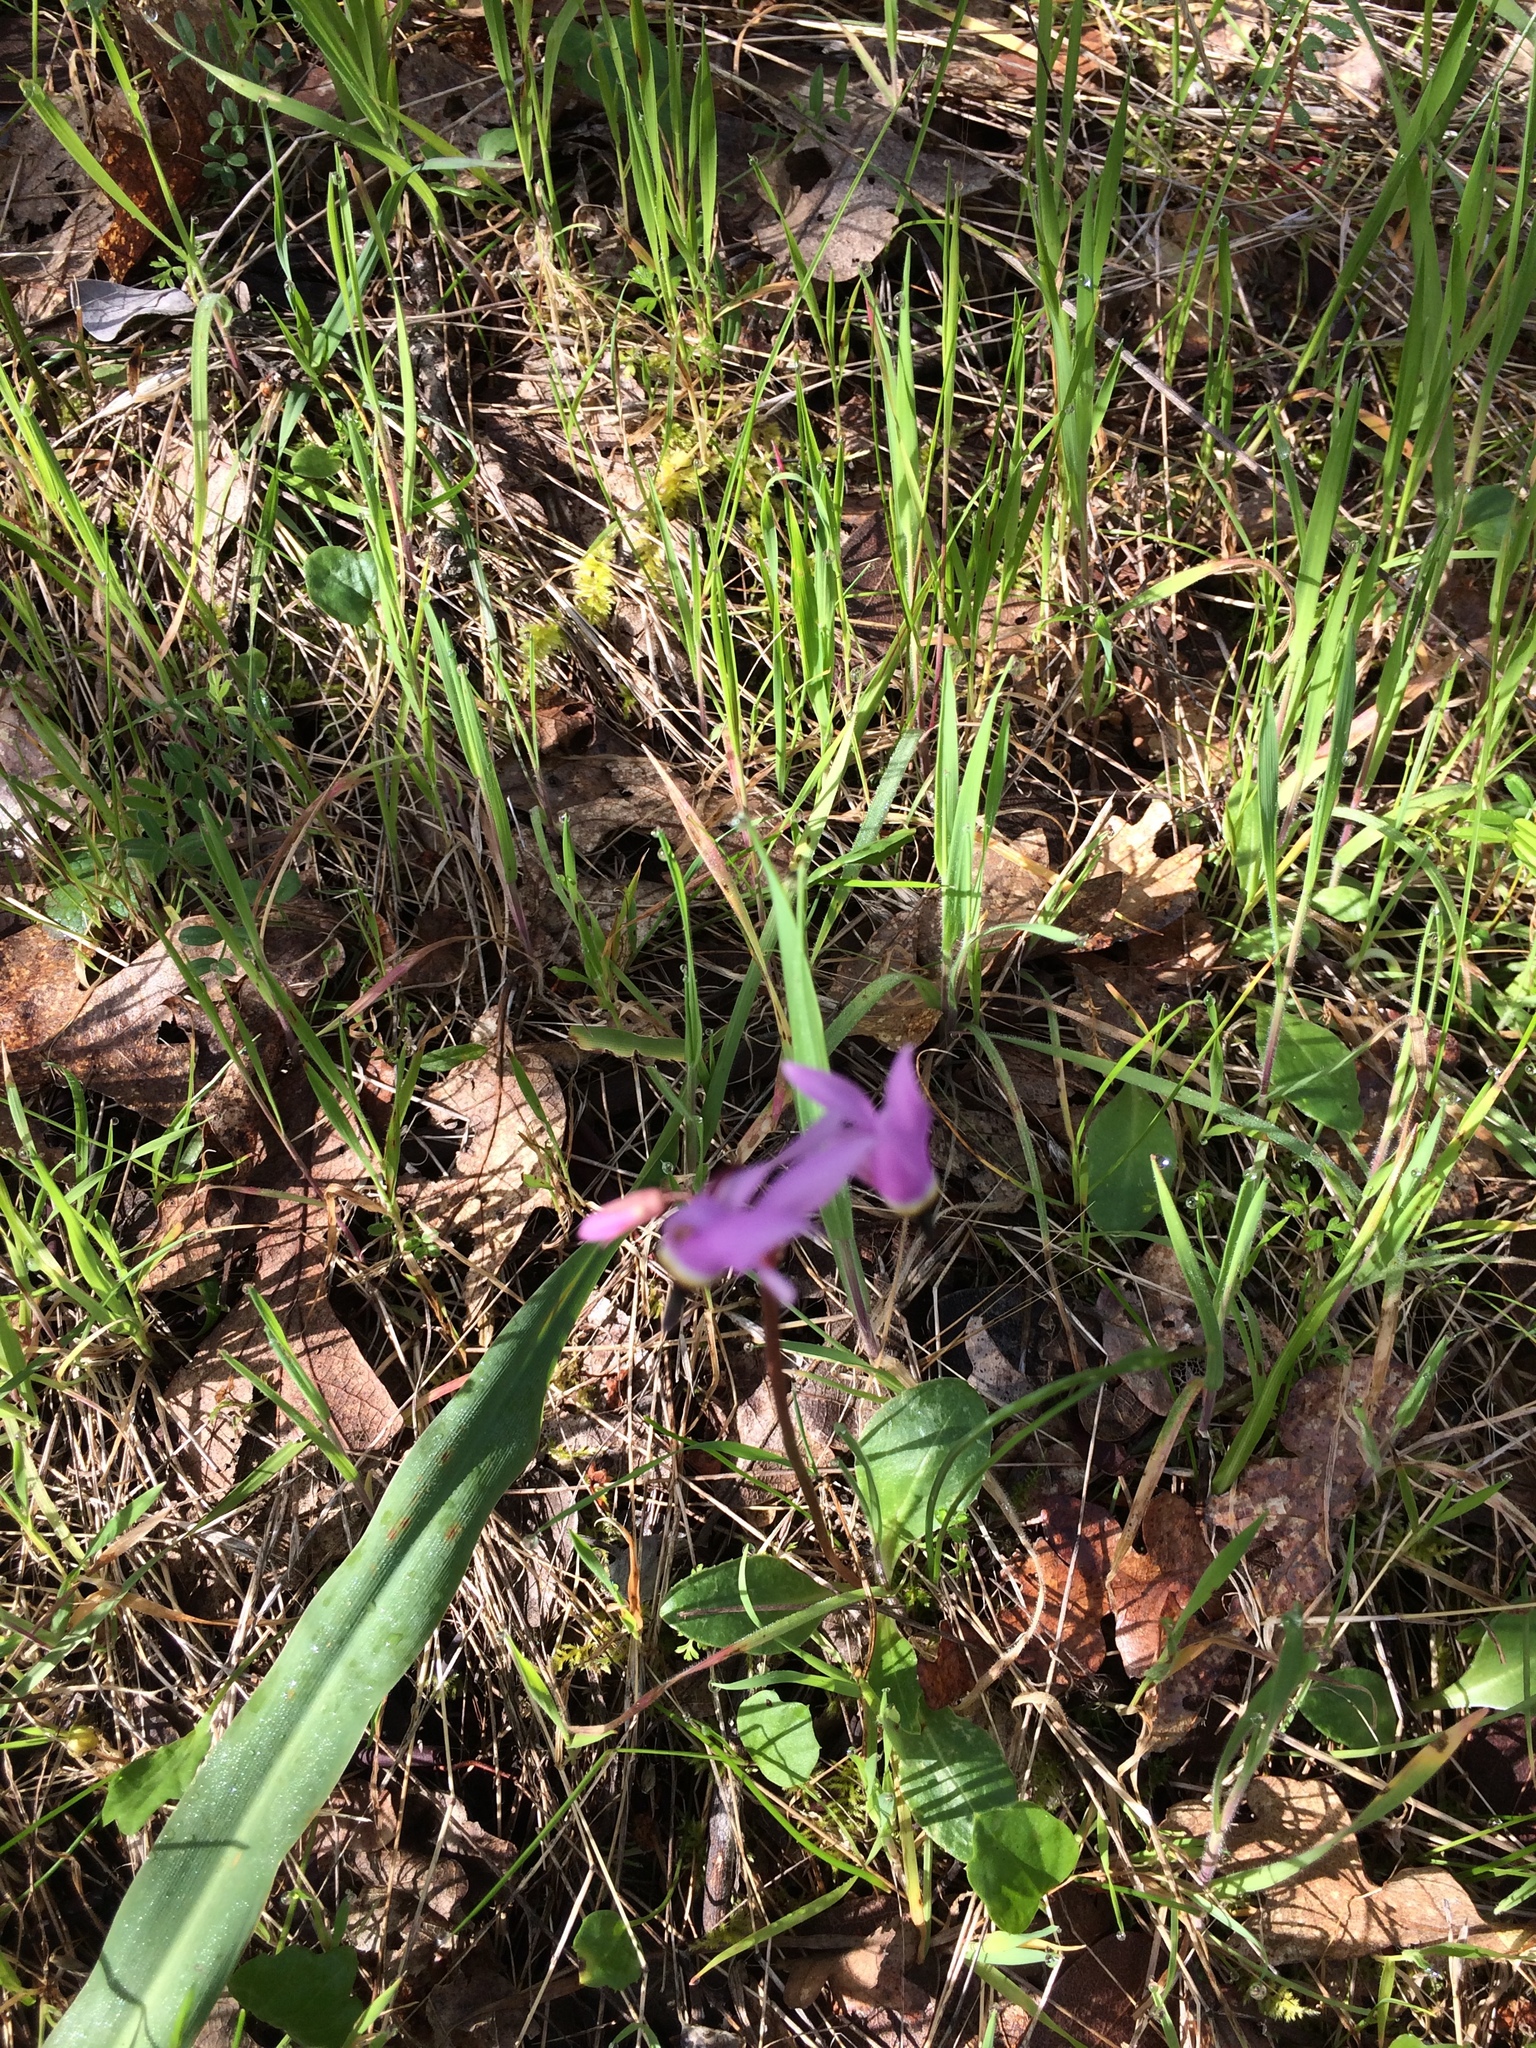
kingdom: Plantae
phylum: Tracheophyta
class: Magnoliopsida
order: Ericales
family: Primulaceae
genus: Dodecatheon
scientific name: Dodecatheon hendersonii
